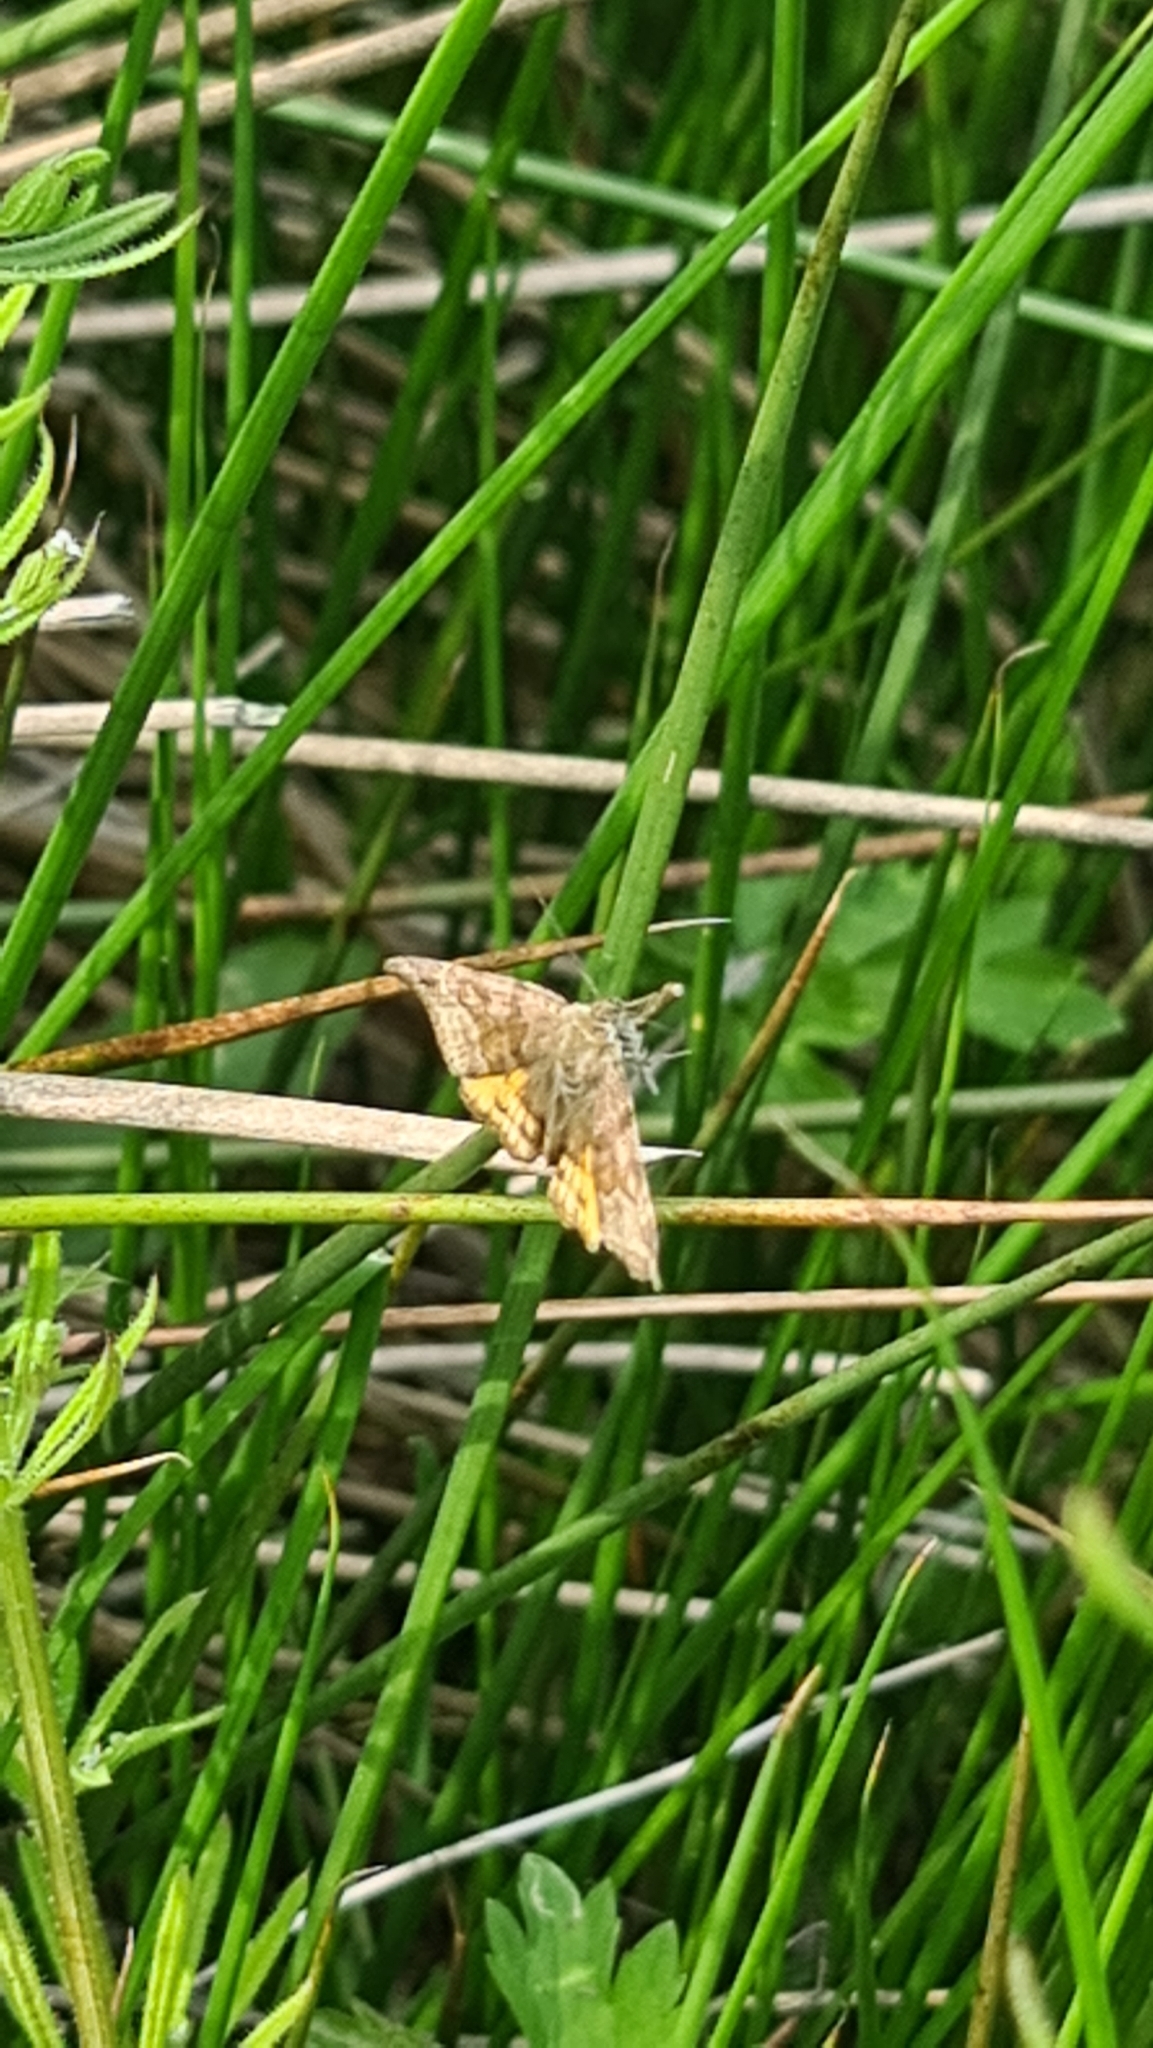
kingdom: Animalia
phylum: Arthropoda
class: Insecta
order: Lepidoptera
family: Erebidae
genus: Euclidia
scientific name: Euclidia glyphica
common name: Burnet companion
